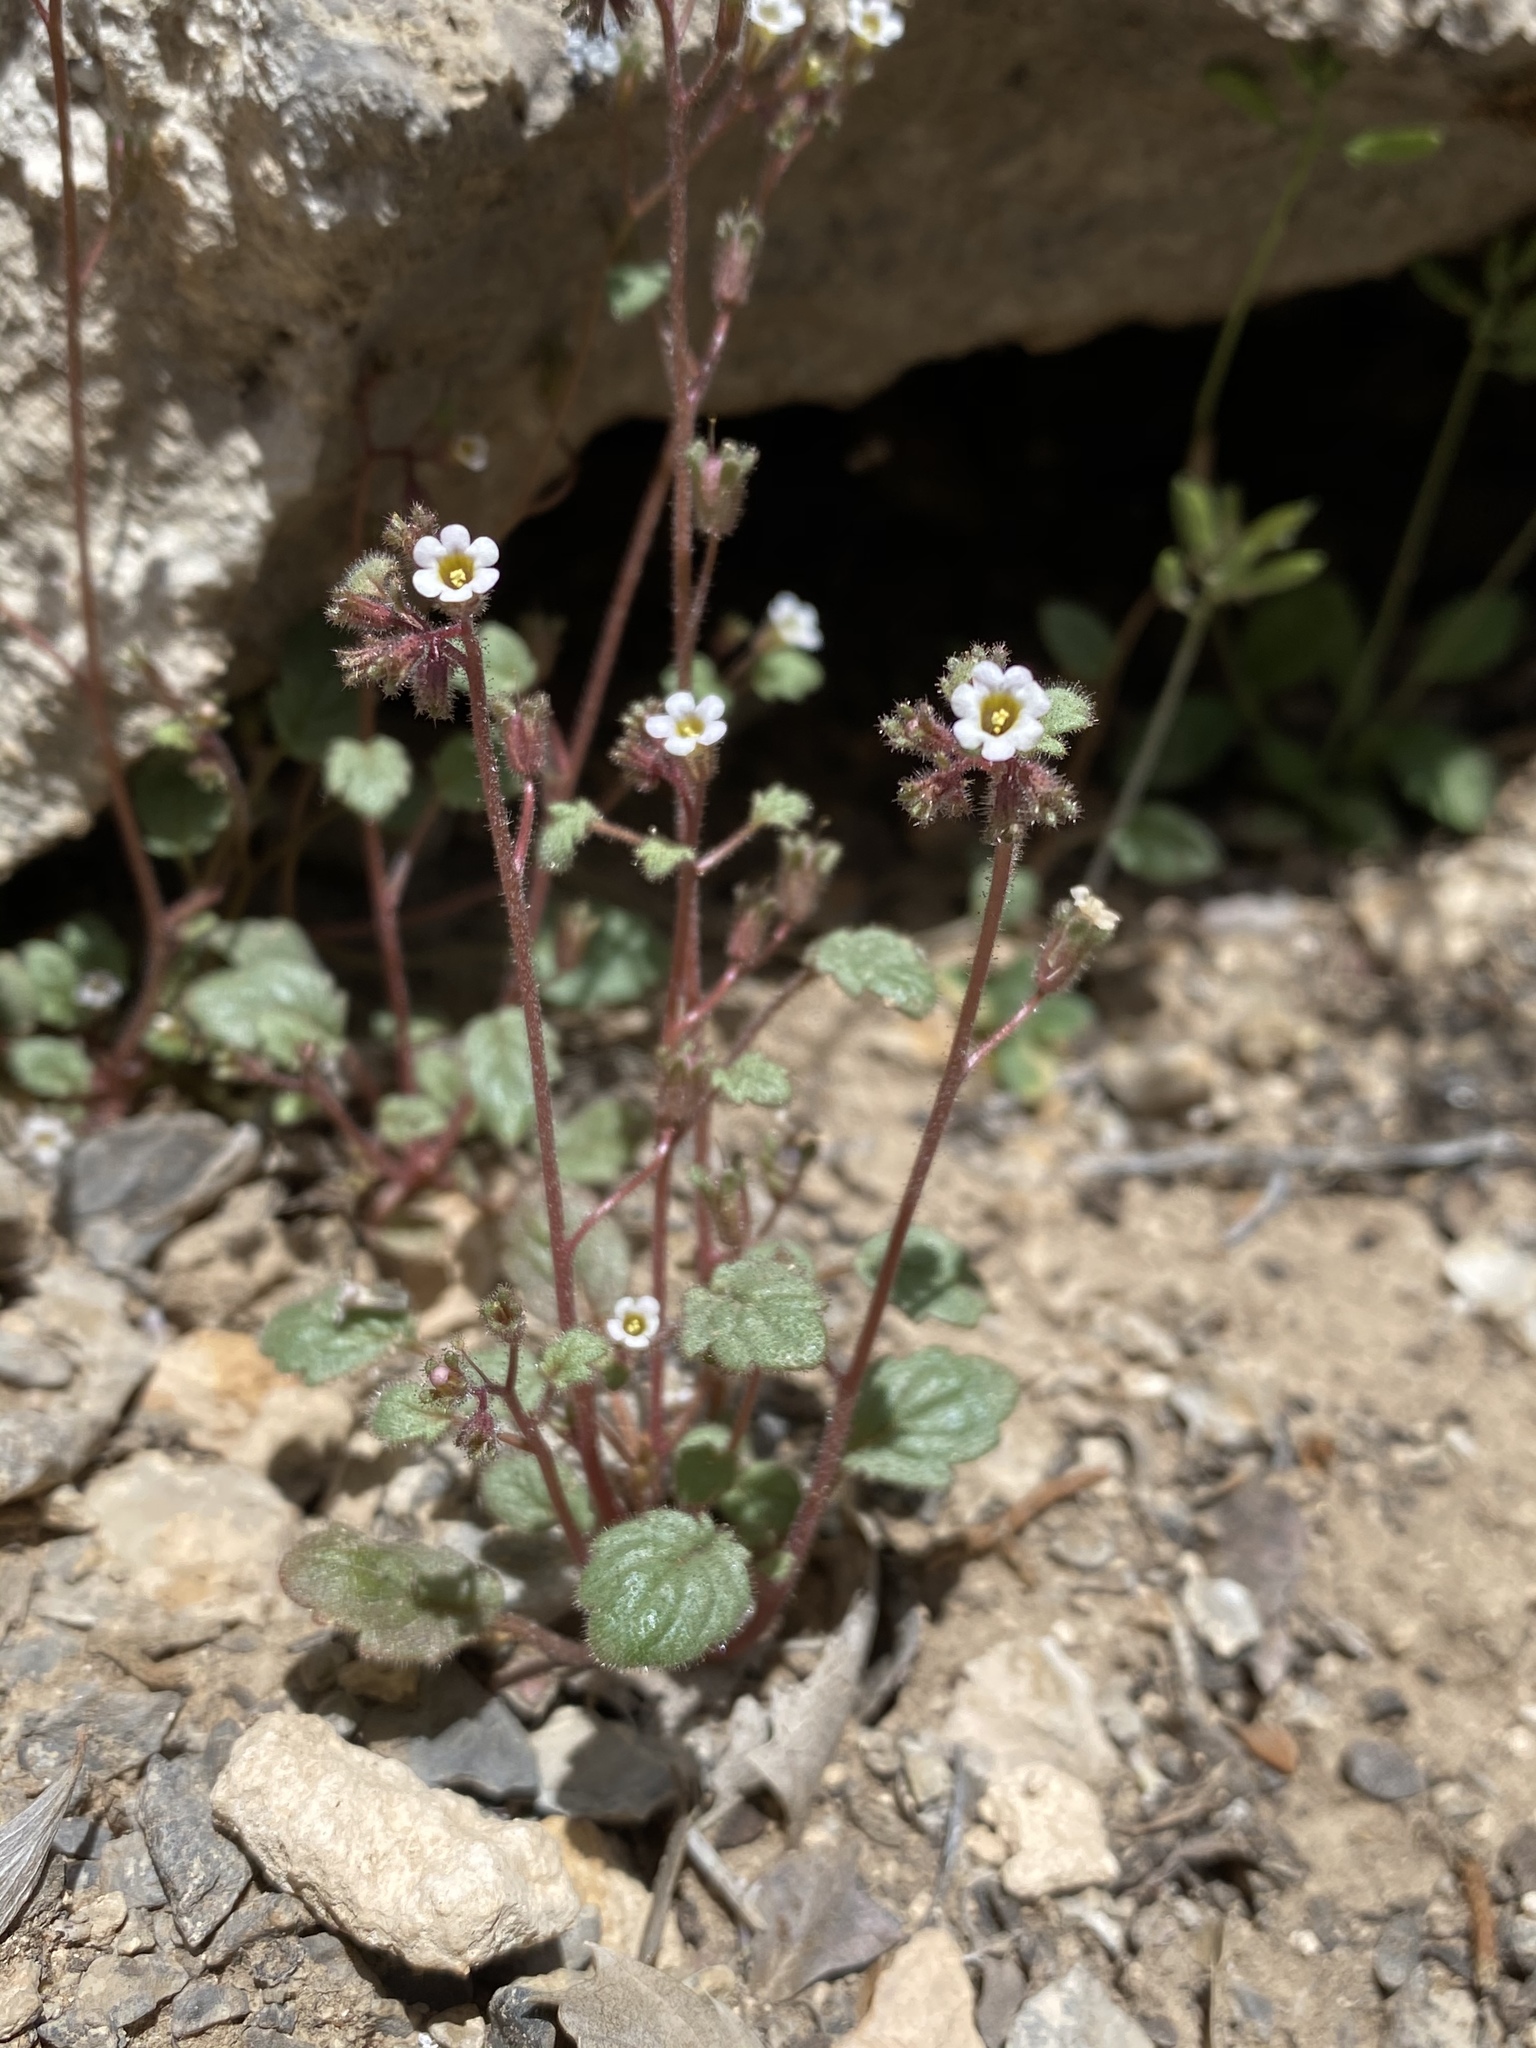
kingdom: Plantae
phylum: Tracheophyta
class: Magnoliopsida
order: Boraginales
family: Hydrophyllaceae
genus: Phacelia
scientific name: Phacelia barnebyana
